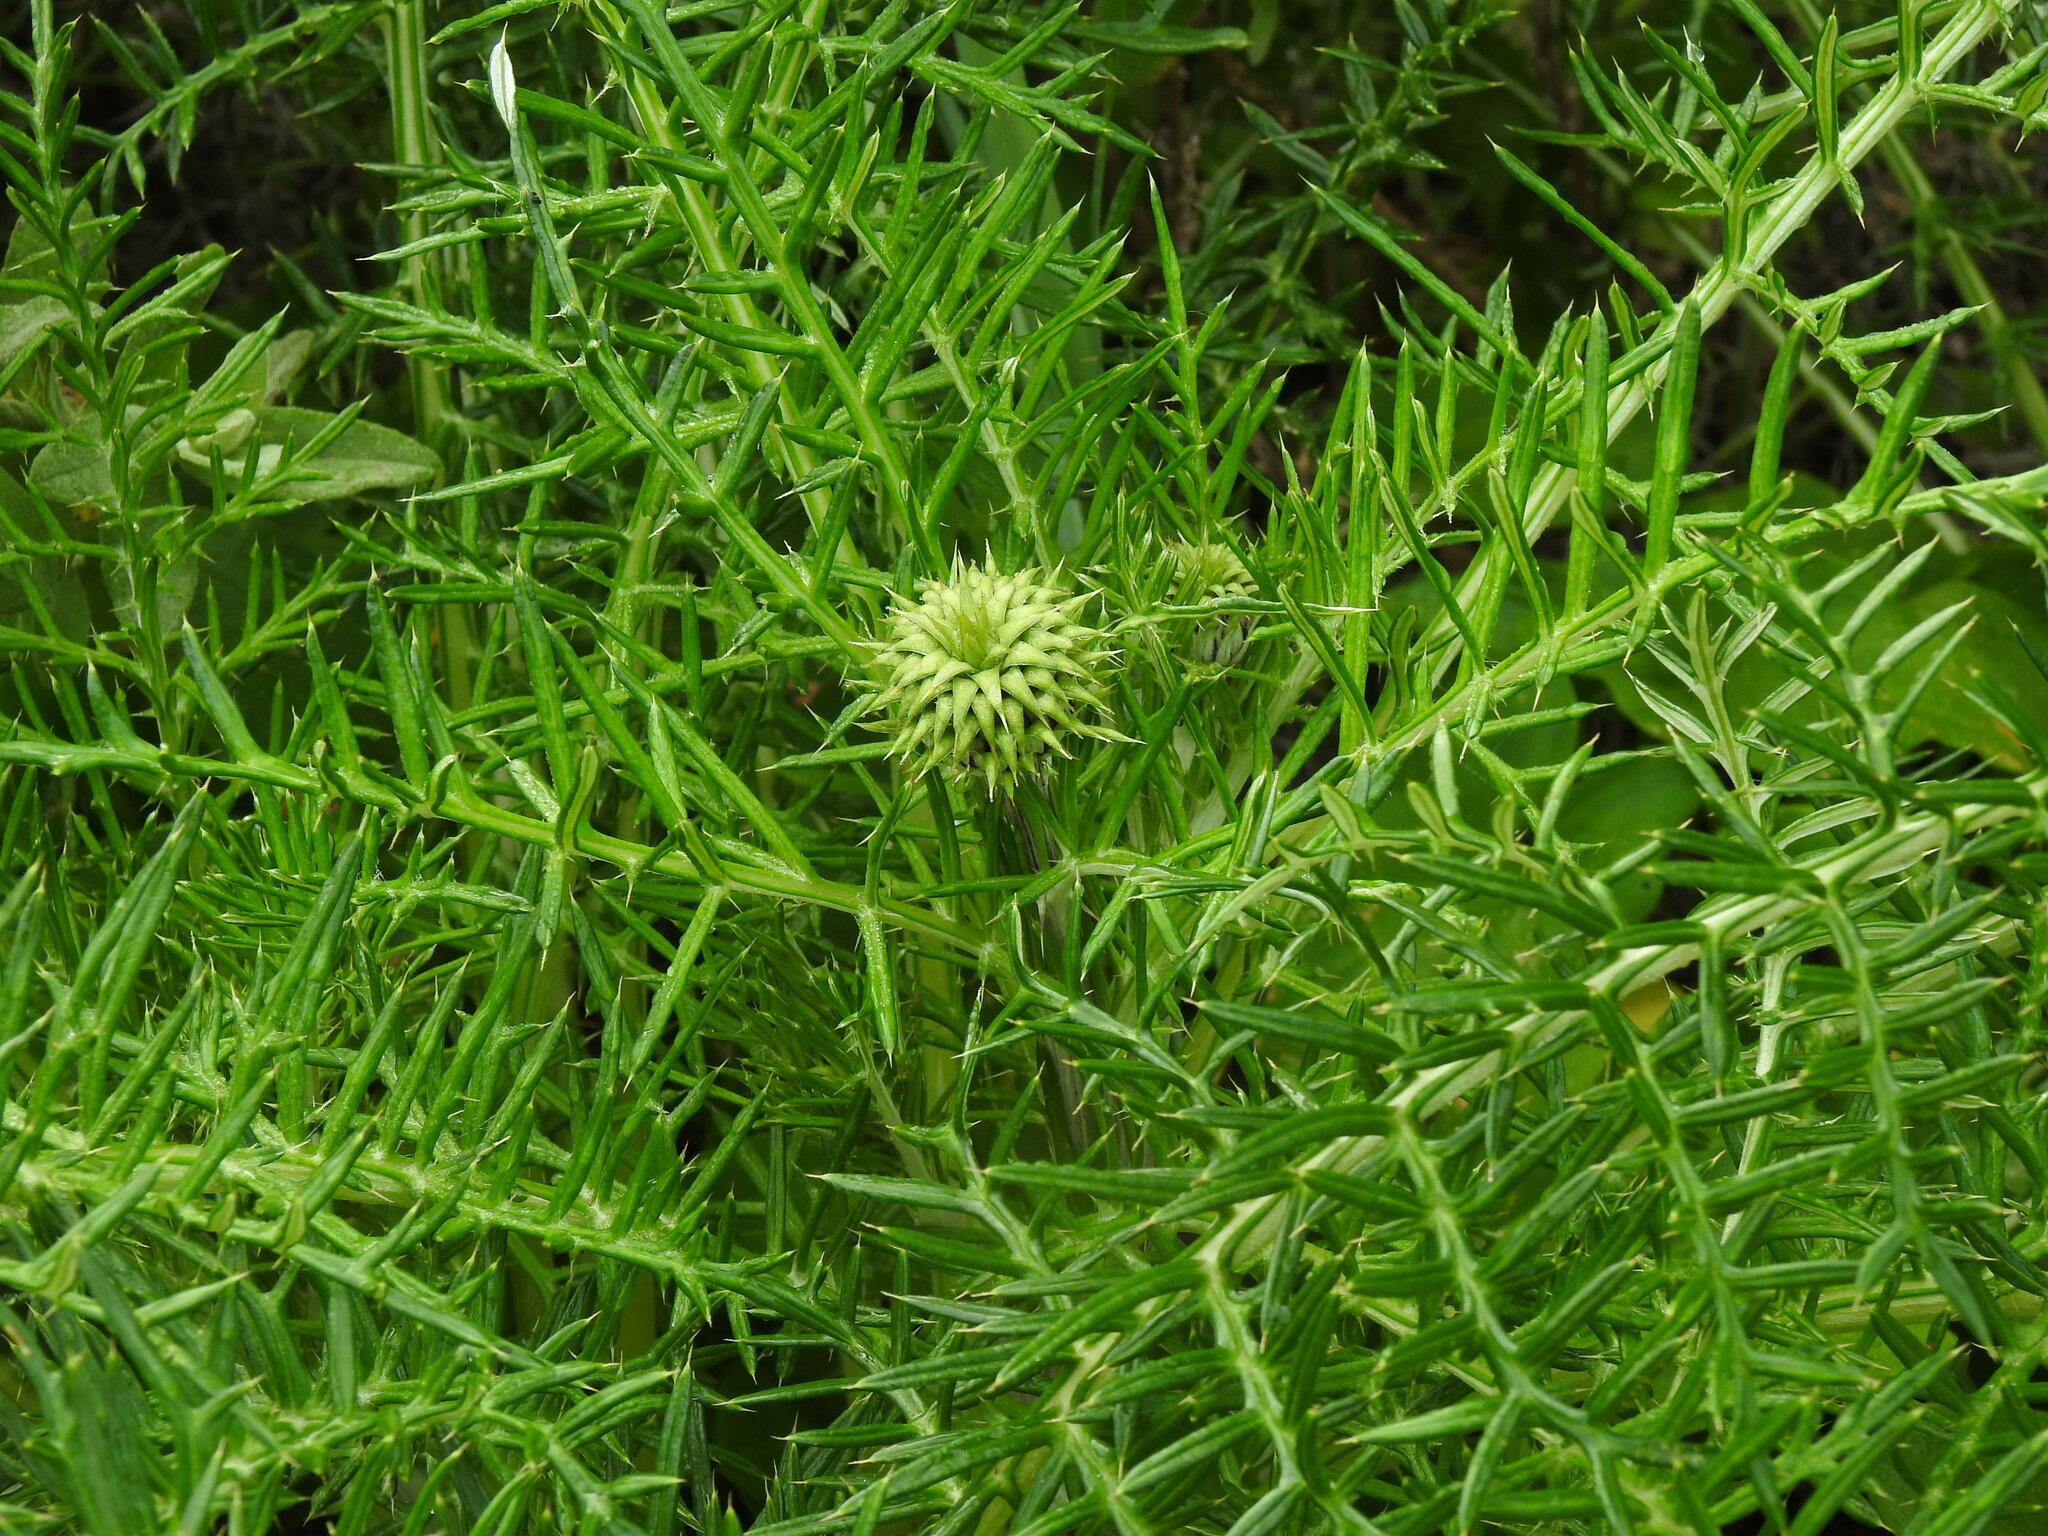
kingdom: Plantae
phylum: Tracheophyta
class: Magnoliopsida
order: Asterales
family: Asteraceae
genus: Cynara
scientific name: Cynara humilis
